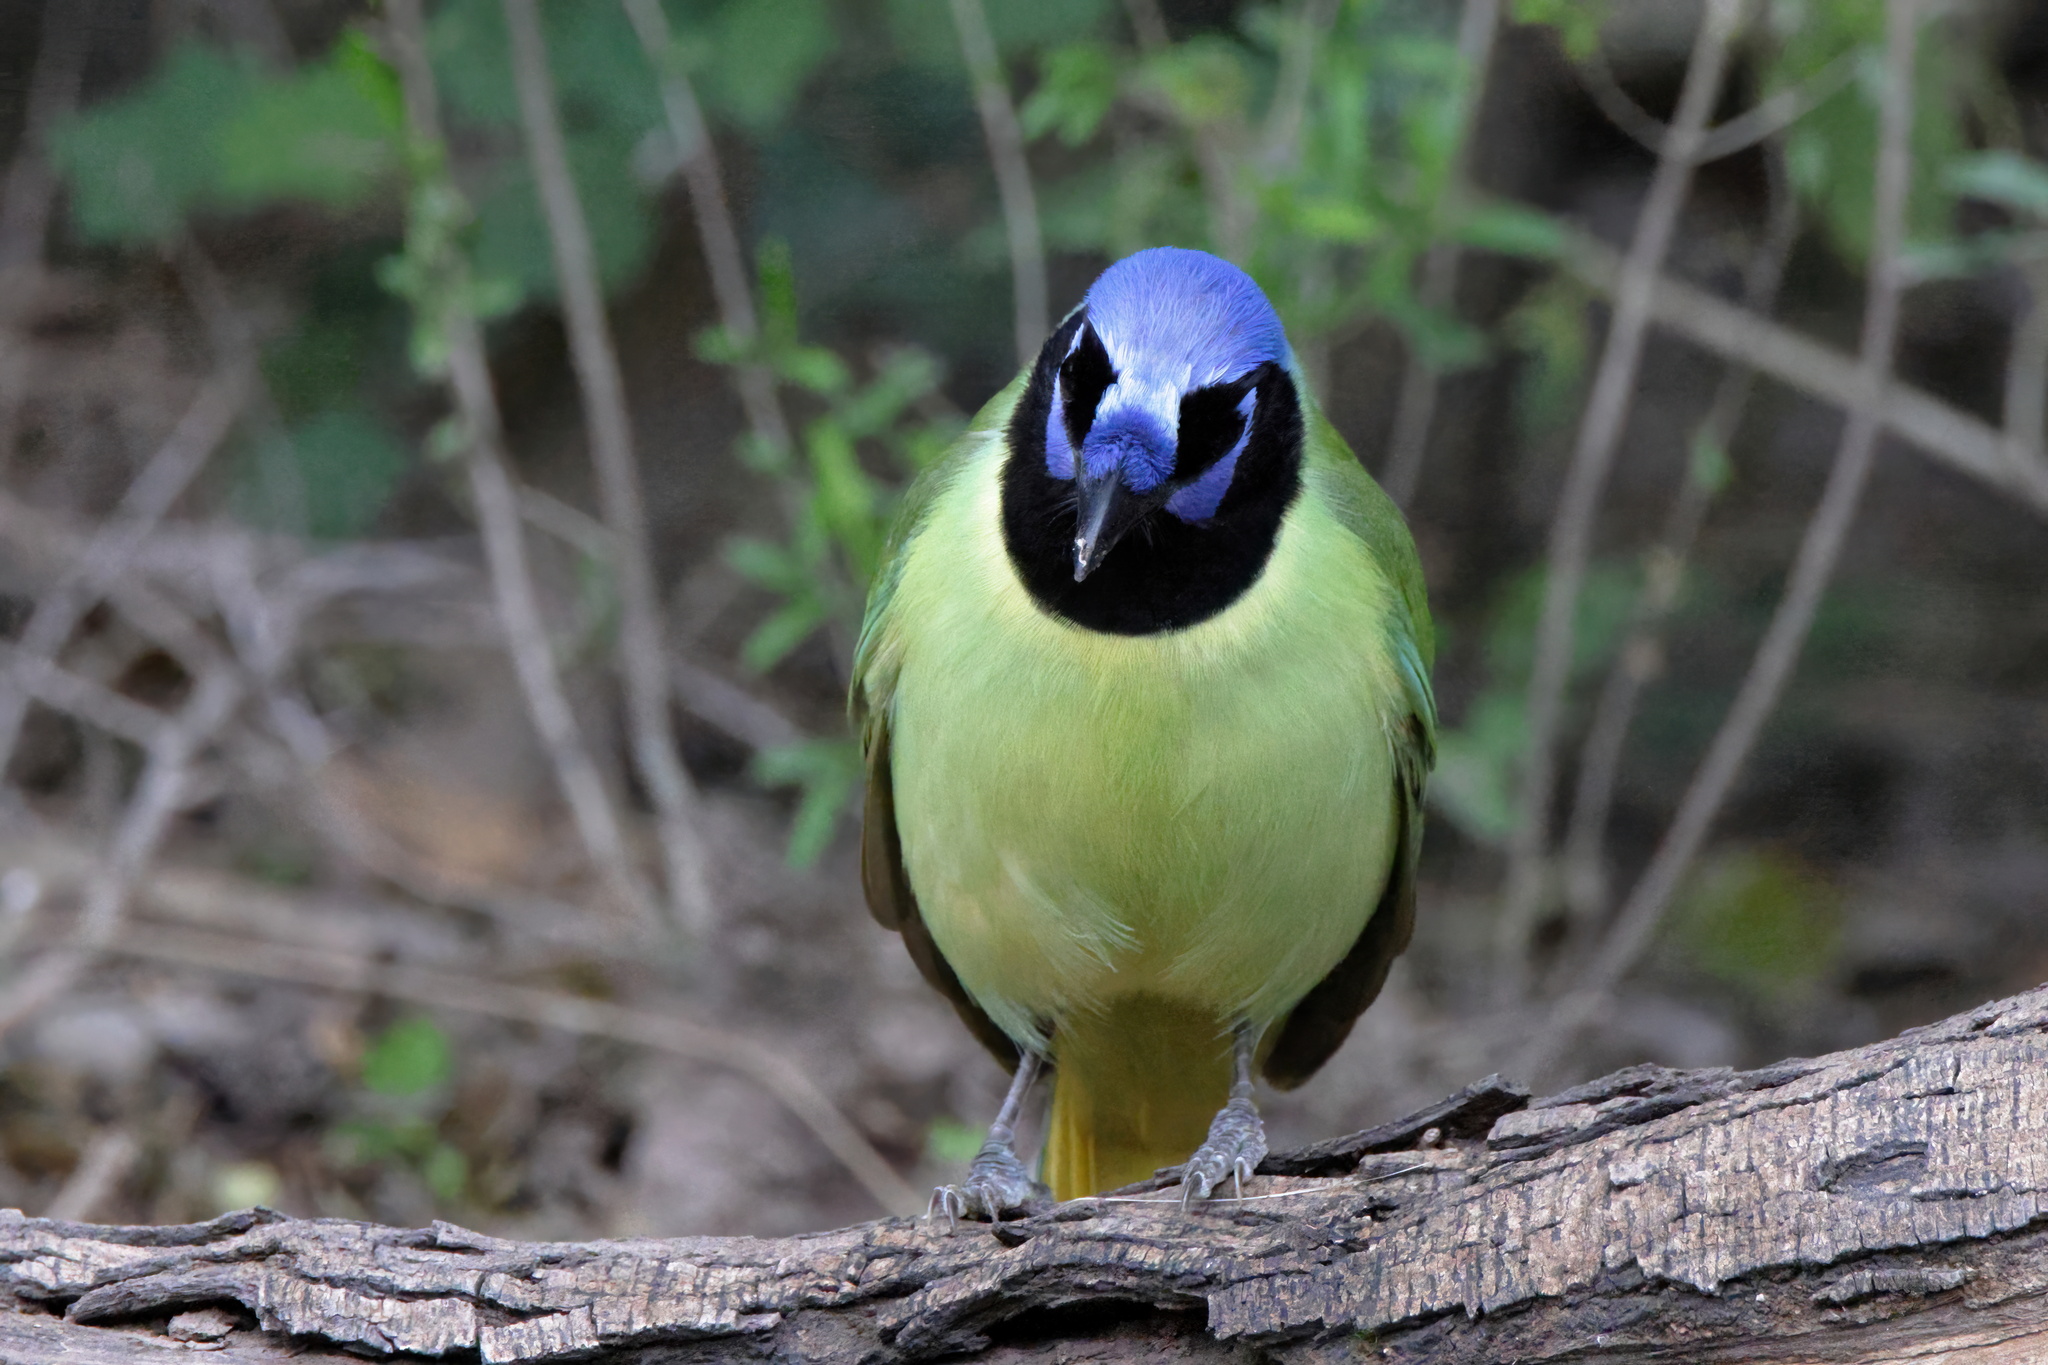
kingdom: Animalia
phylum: Chordata
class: Aves
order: Passeriformes
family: Corvidae
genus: Cyanocorax
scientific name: Cyanocorax yncas
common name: Green jay
